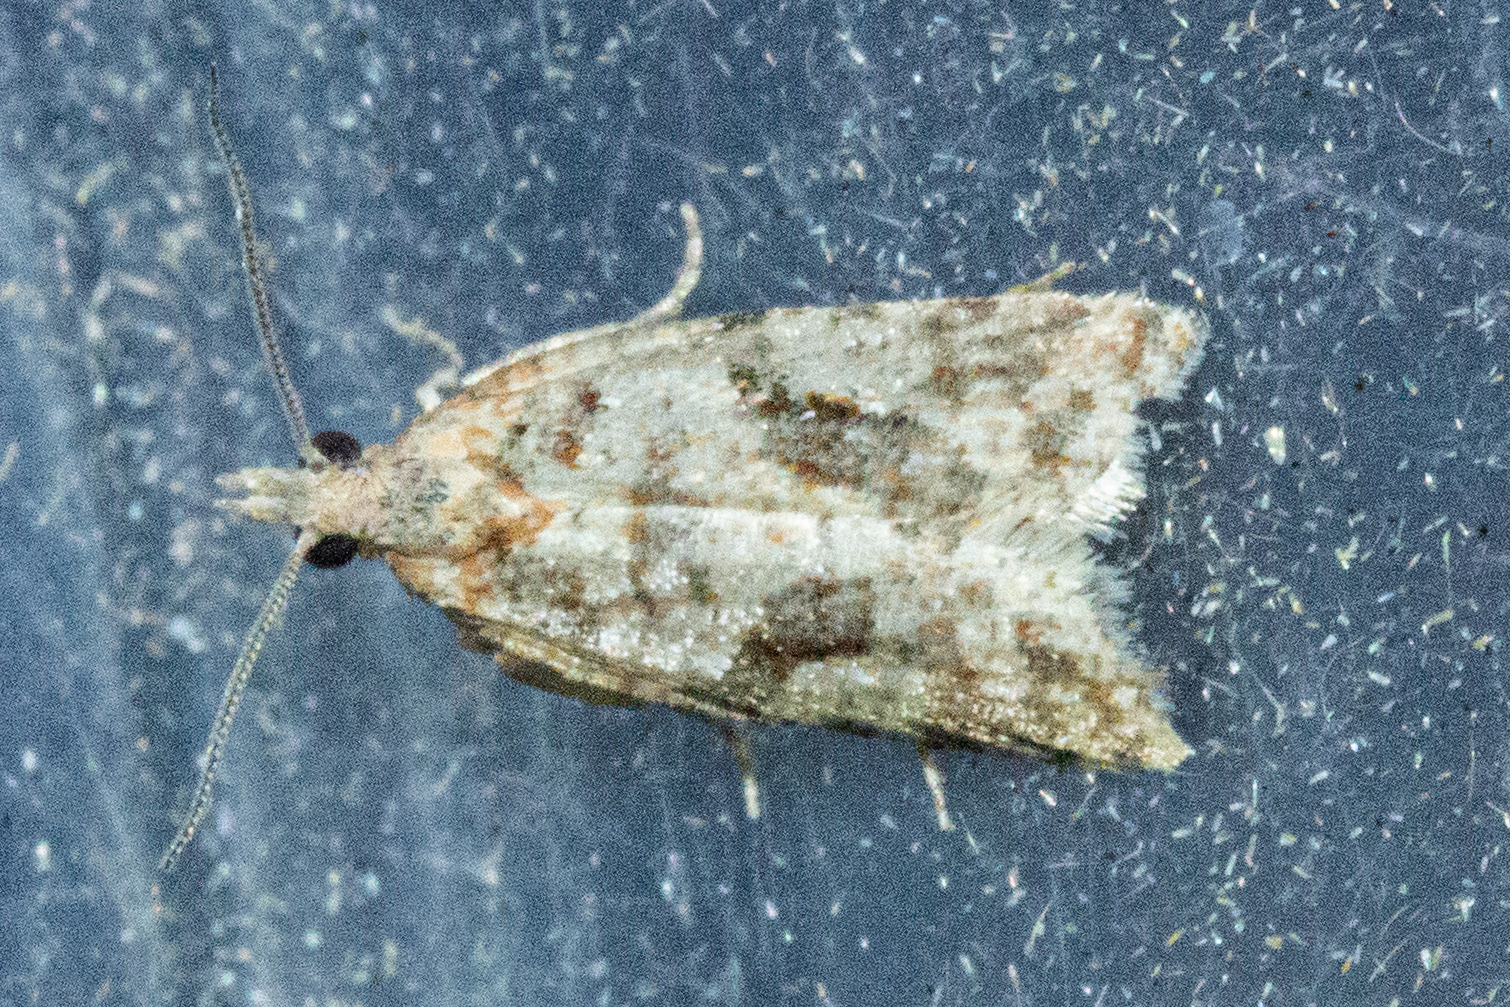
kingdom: Animalia
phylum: Arthropoda
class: Insecta
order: Lepidoptera
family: Tortricidae
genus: Capua
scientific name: Capua semiferana
